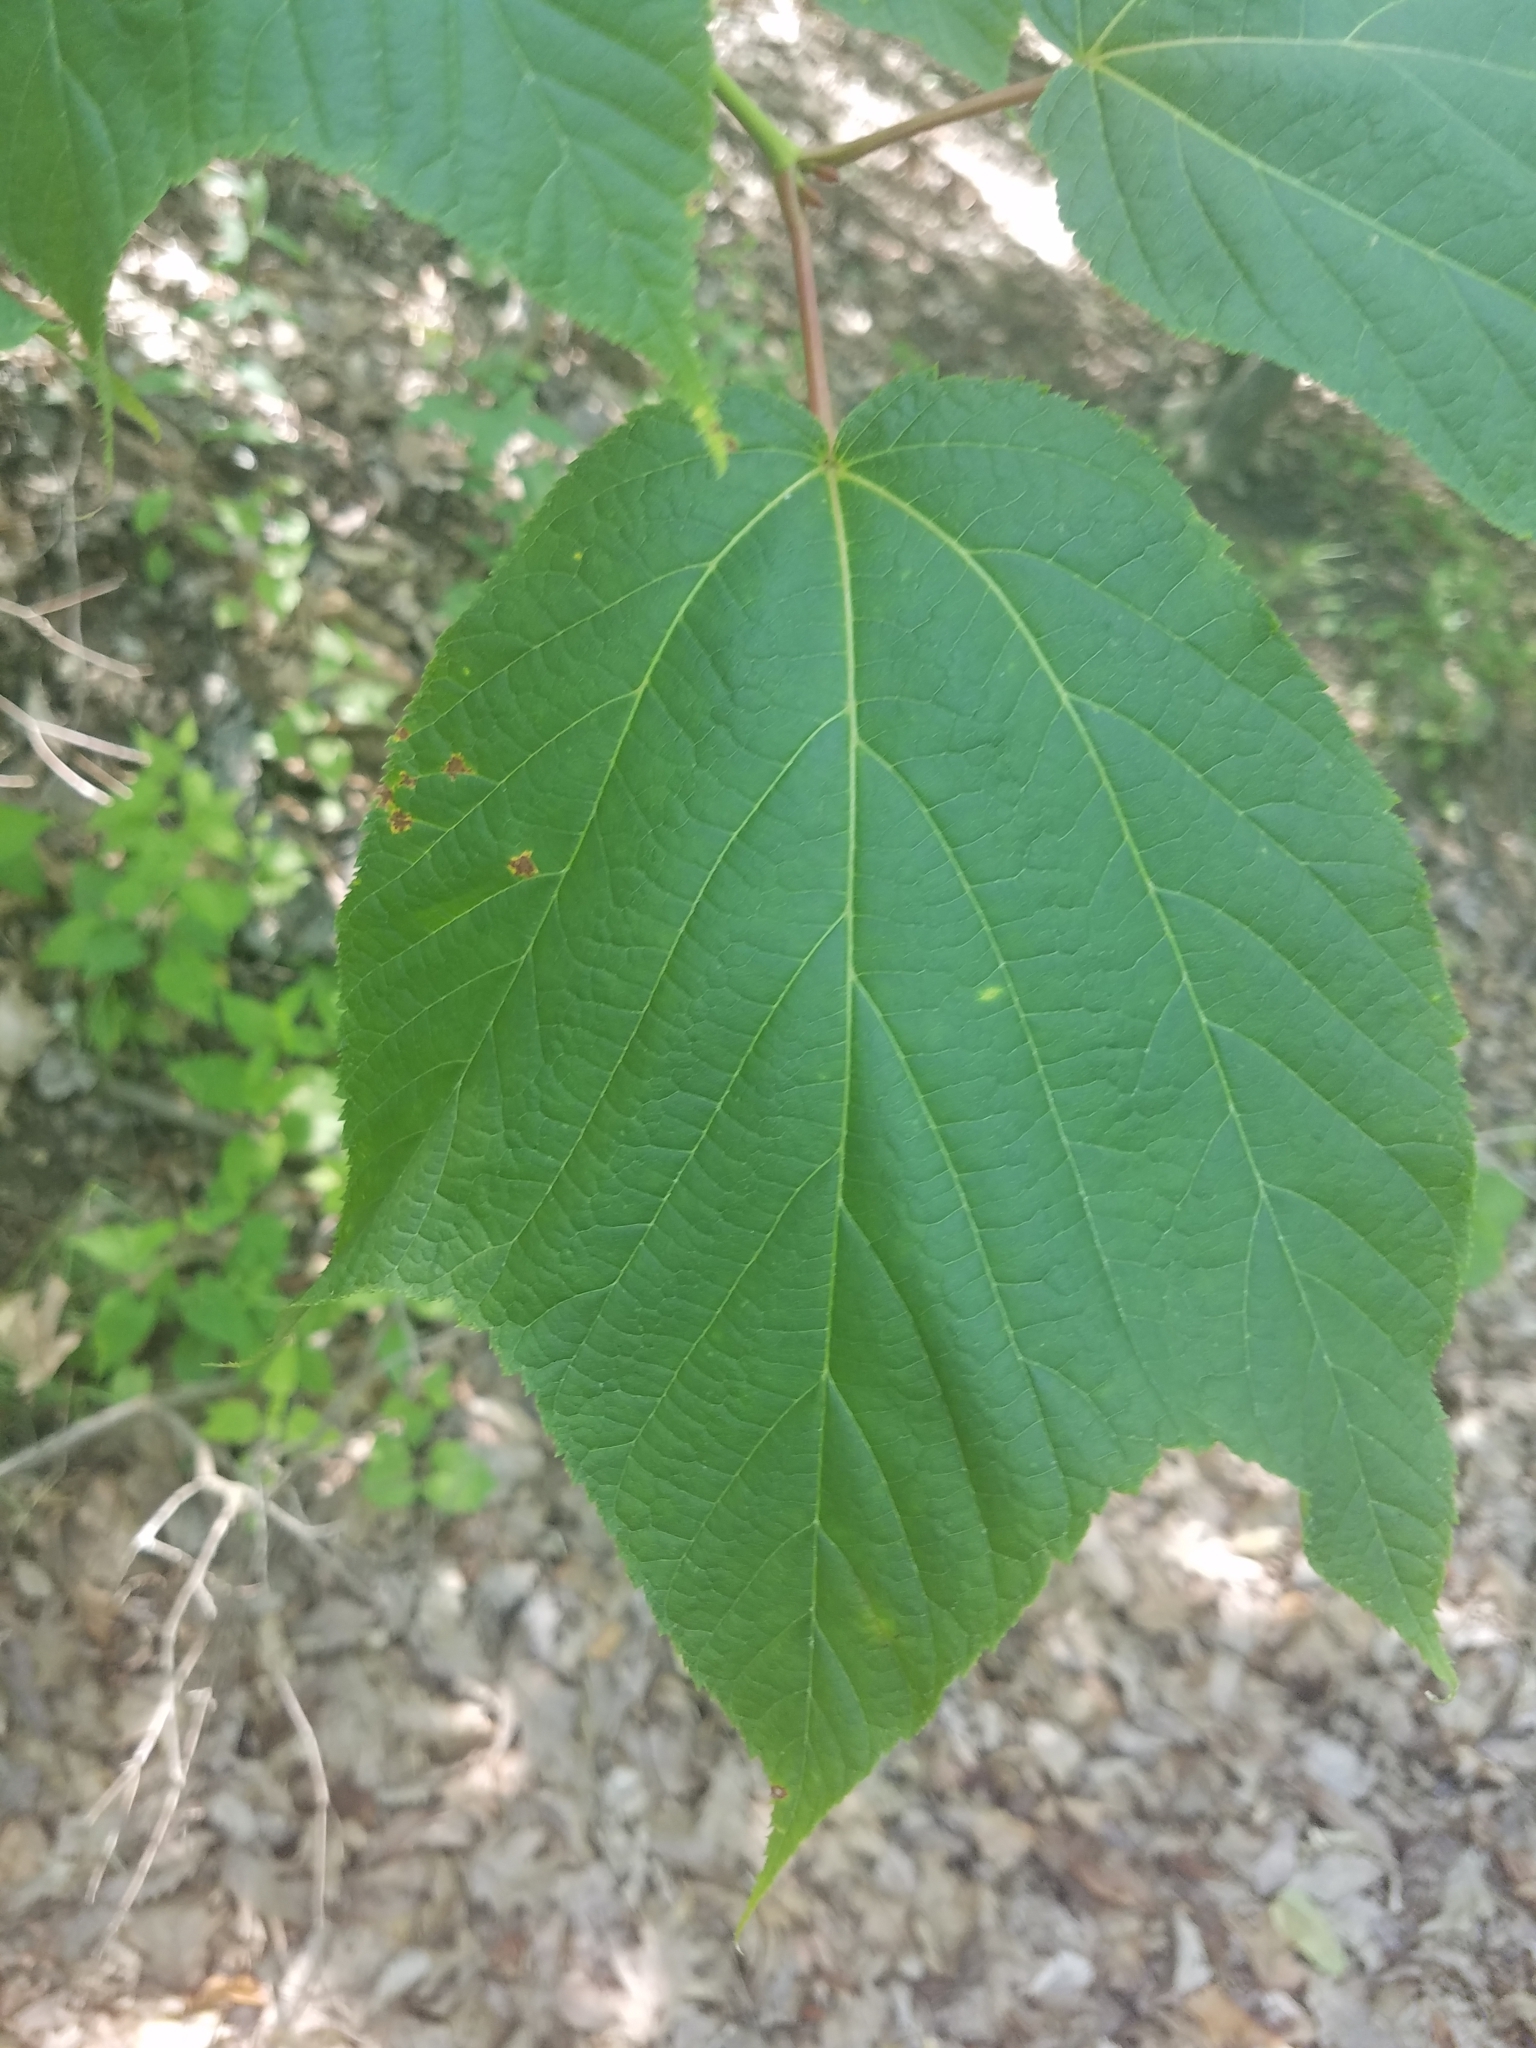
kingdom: Plantae
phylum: Tracheophyta
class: Magnoliopsida
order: Sapindales
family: Sapindaceae
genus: Acer
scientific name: Acer pensylvanicum
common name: Moosewood
